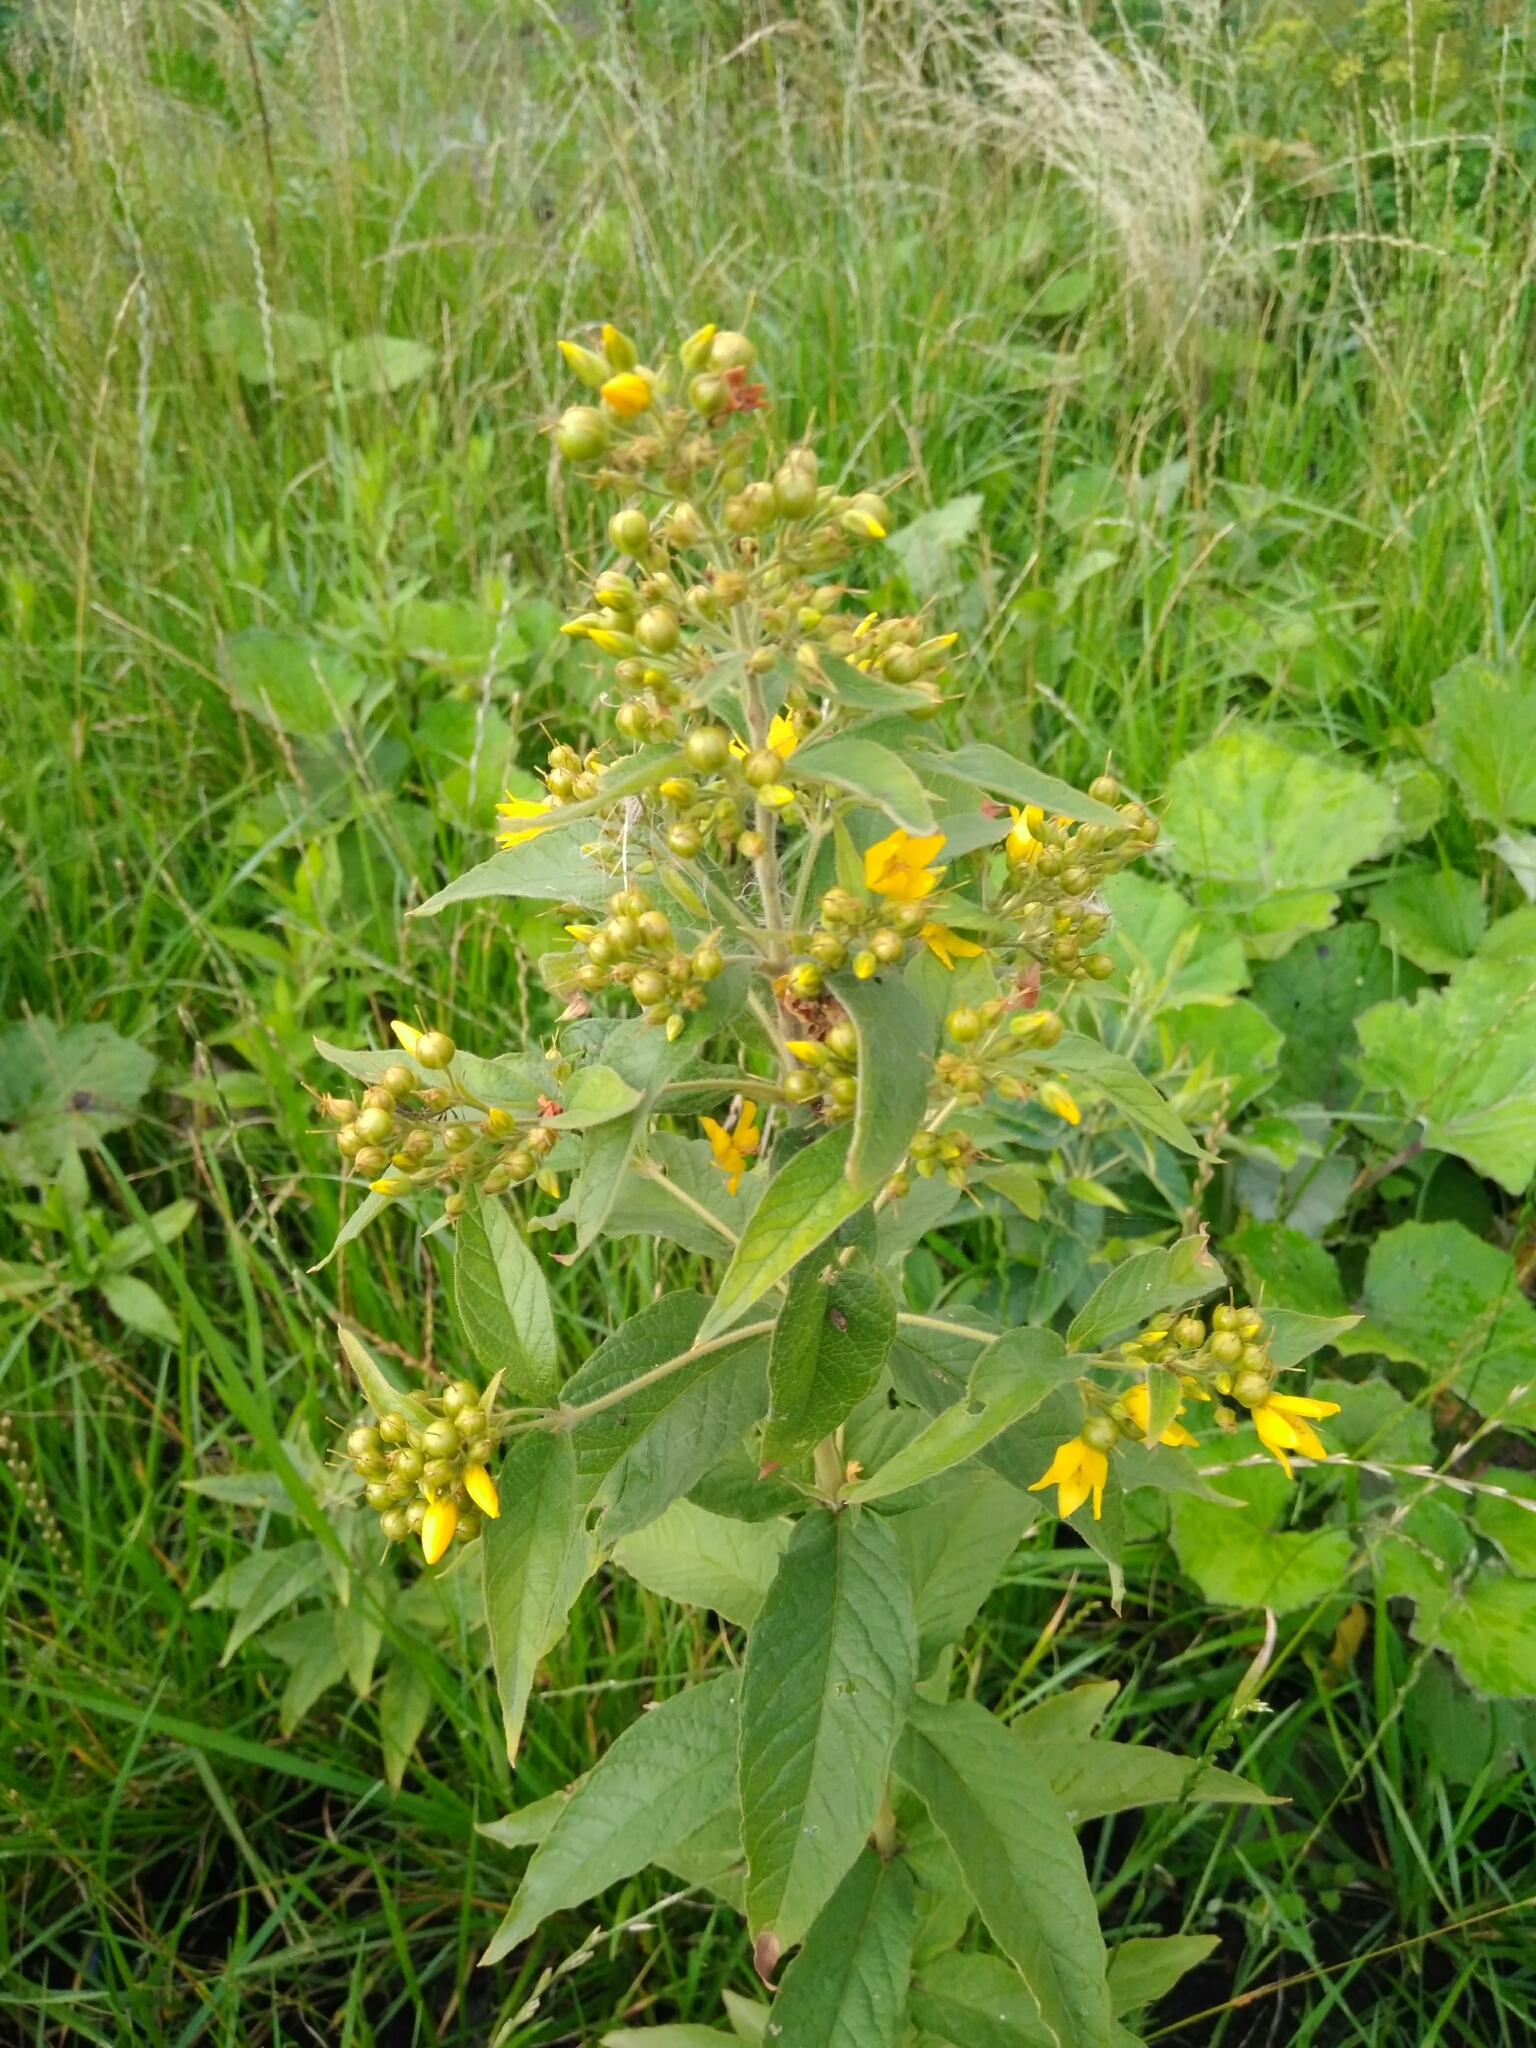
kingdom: Plantae
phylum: Tracheophyta
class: Magnoliopsida
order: Ericales
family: Primulaceae
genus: Lysimachia
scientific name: Lysimachia vulgaris
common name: Yellow loosestrife
